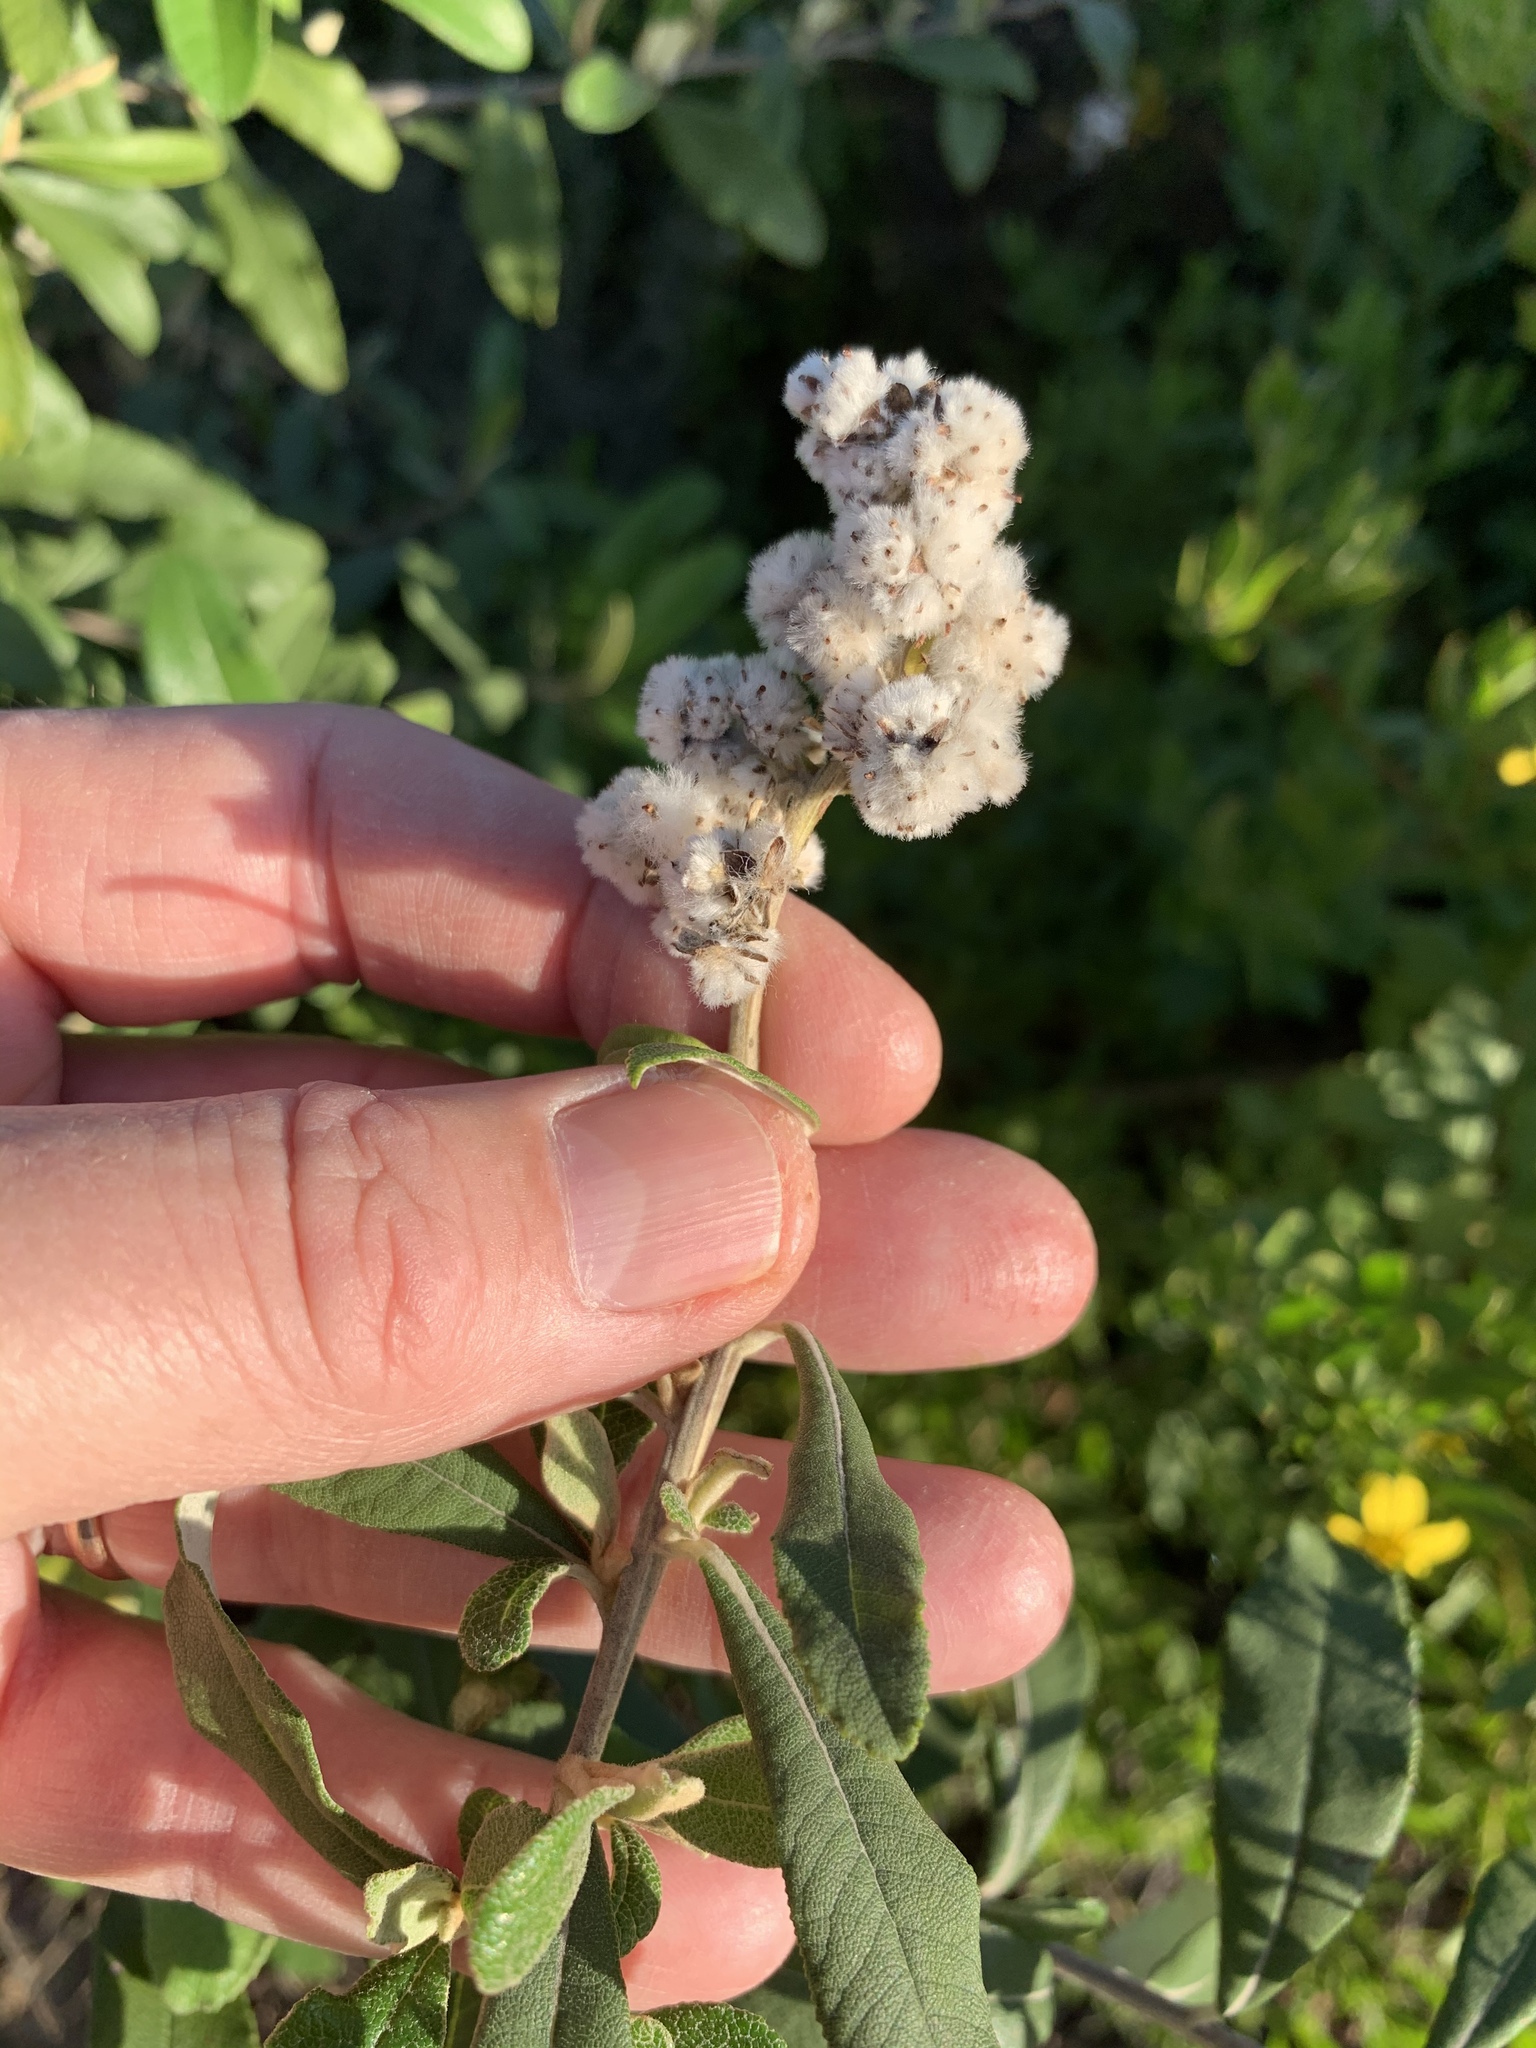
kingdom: Plantae
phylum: Tracheophyta
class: Magnoliopsida
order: Asterales
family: Asteraceae
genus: Tarchonanthus
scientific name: Tarchonanthus littoralis
